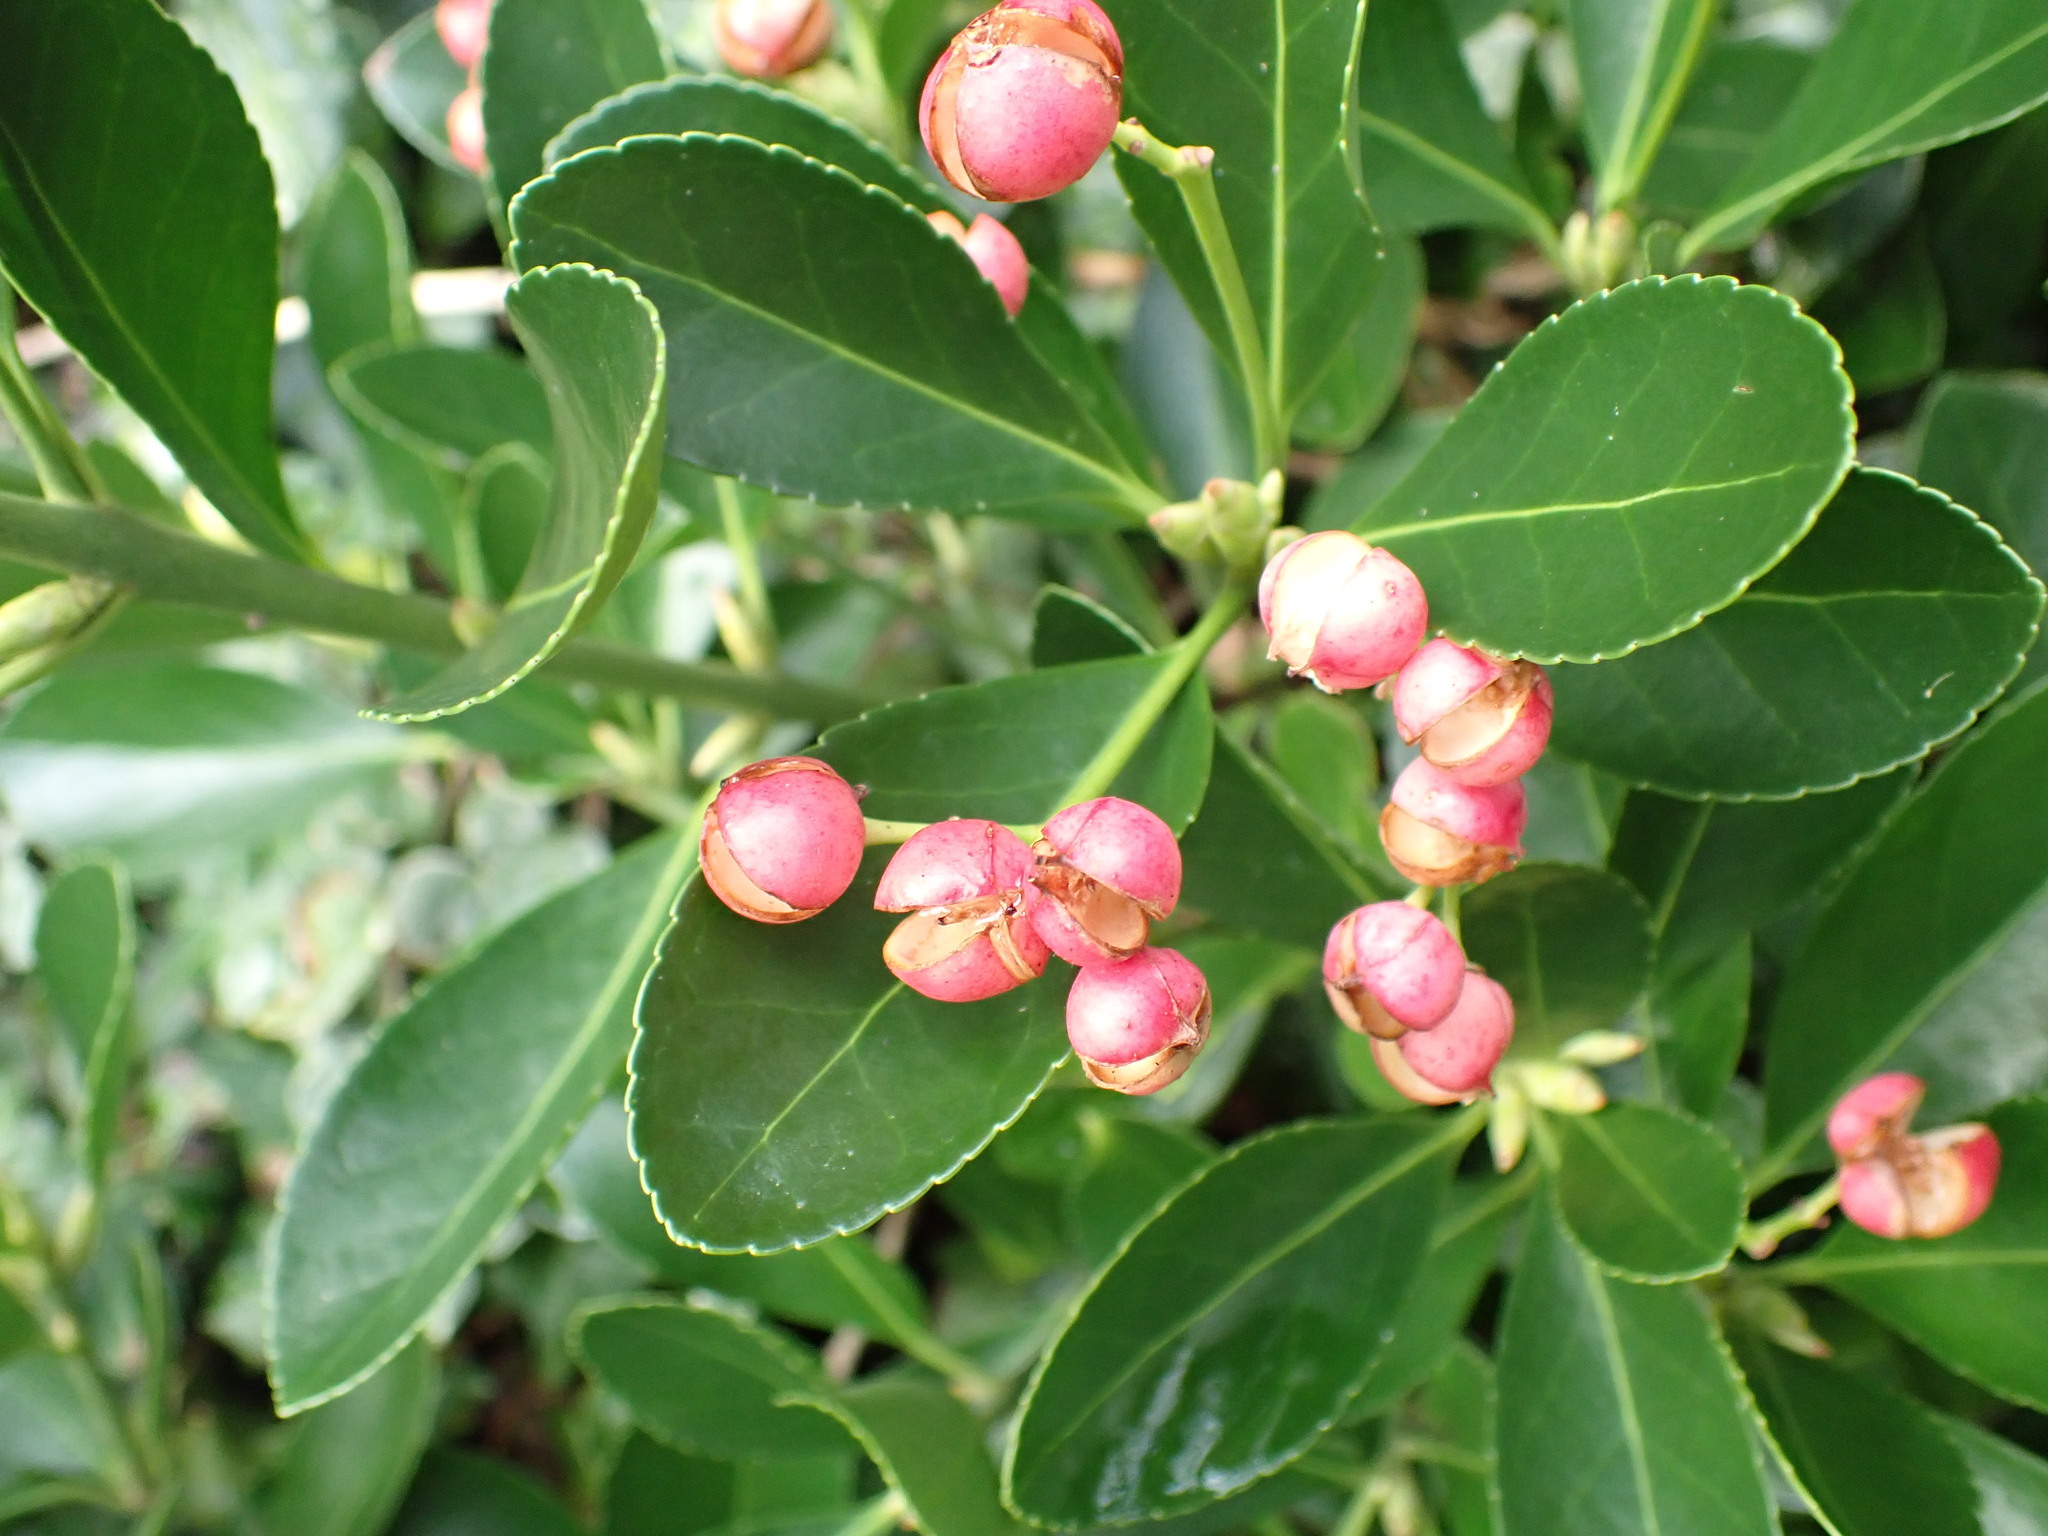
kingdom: Plantae
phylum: Tracheophyta
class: Magnoliopsida
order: Celastrales
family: Celastraceae
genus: Euonymus
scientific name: Euonymus japonicus
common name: Japanese spindletree
